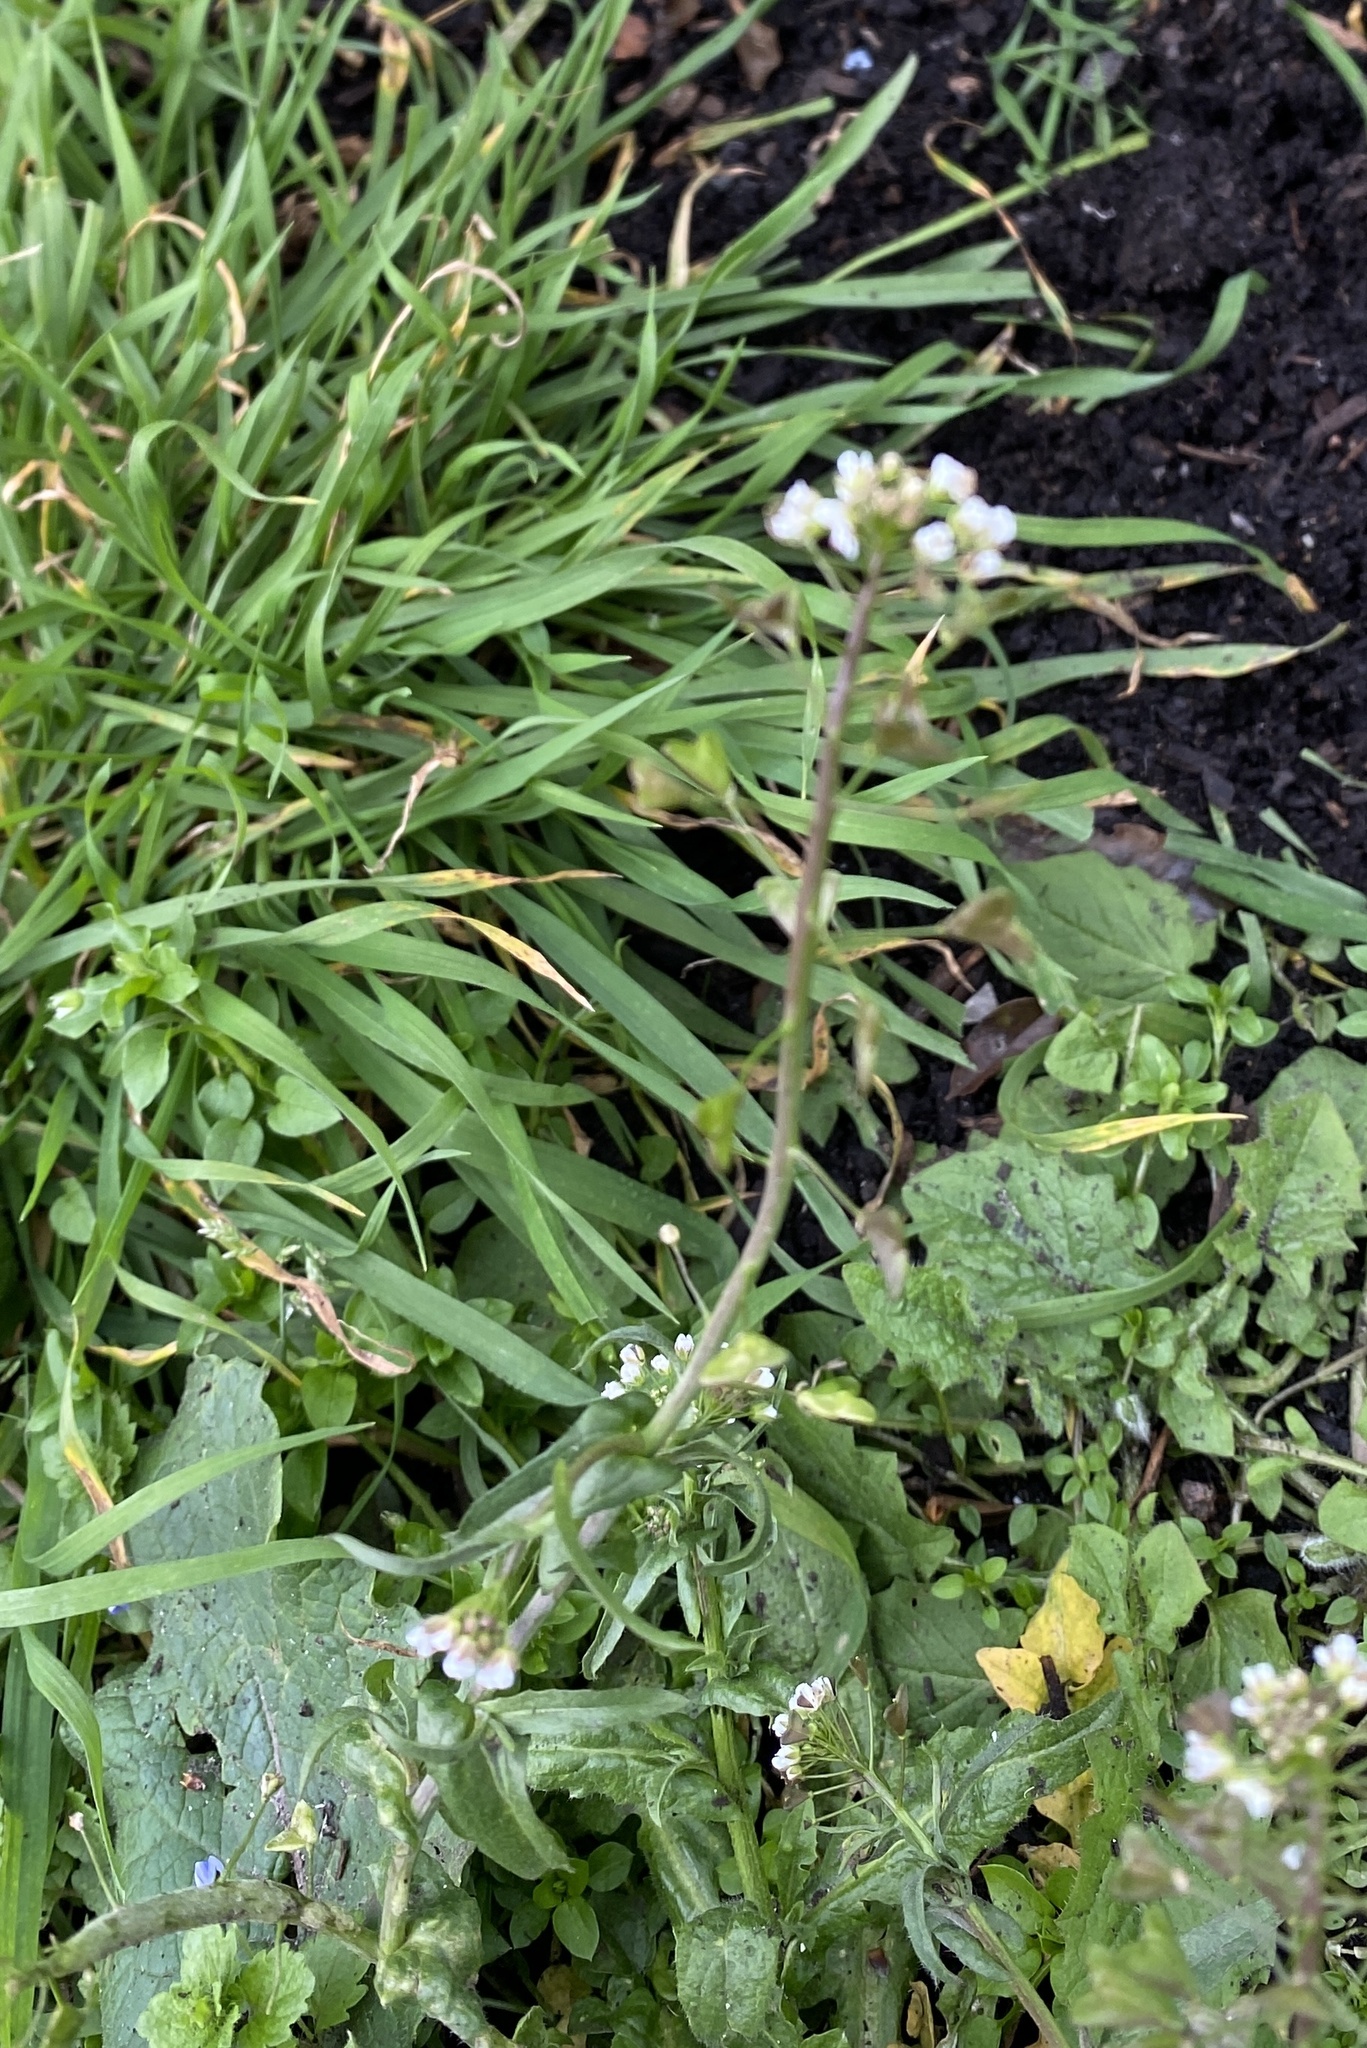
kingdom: Plantae
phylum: Tracheophyta
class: Magnoliopsida
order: Brassicales
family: Brassicaceae
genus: Capsella
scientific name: Capsella bursa-pastoris
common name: Shepherd's purse
